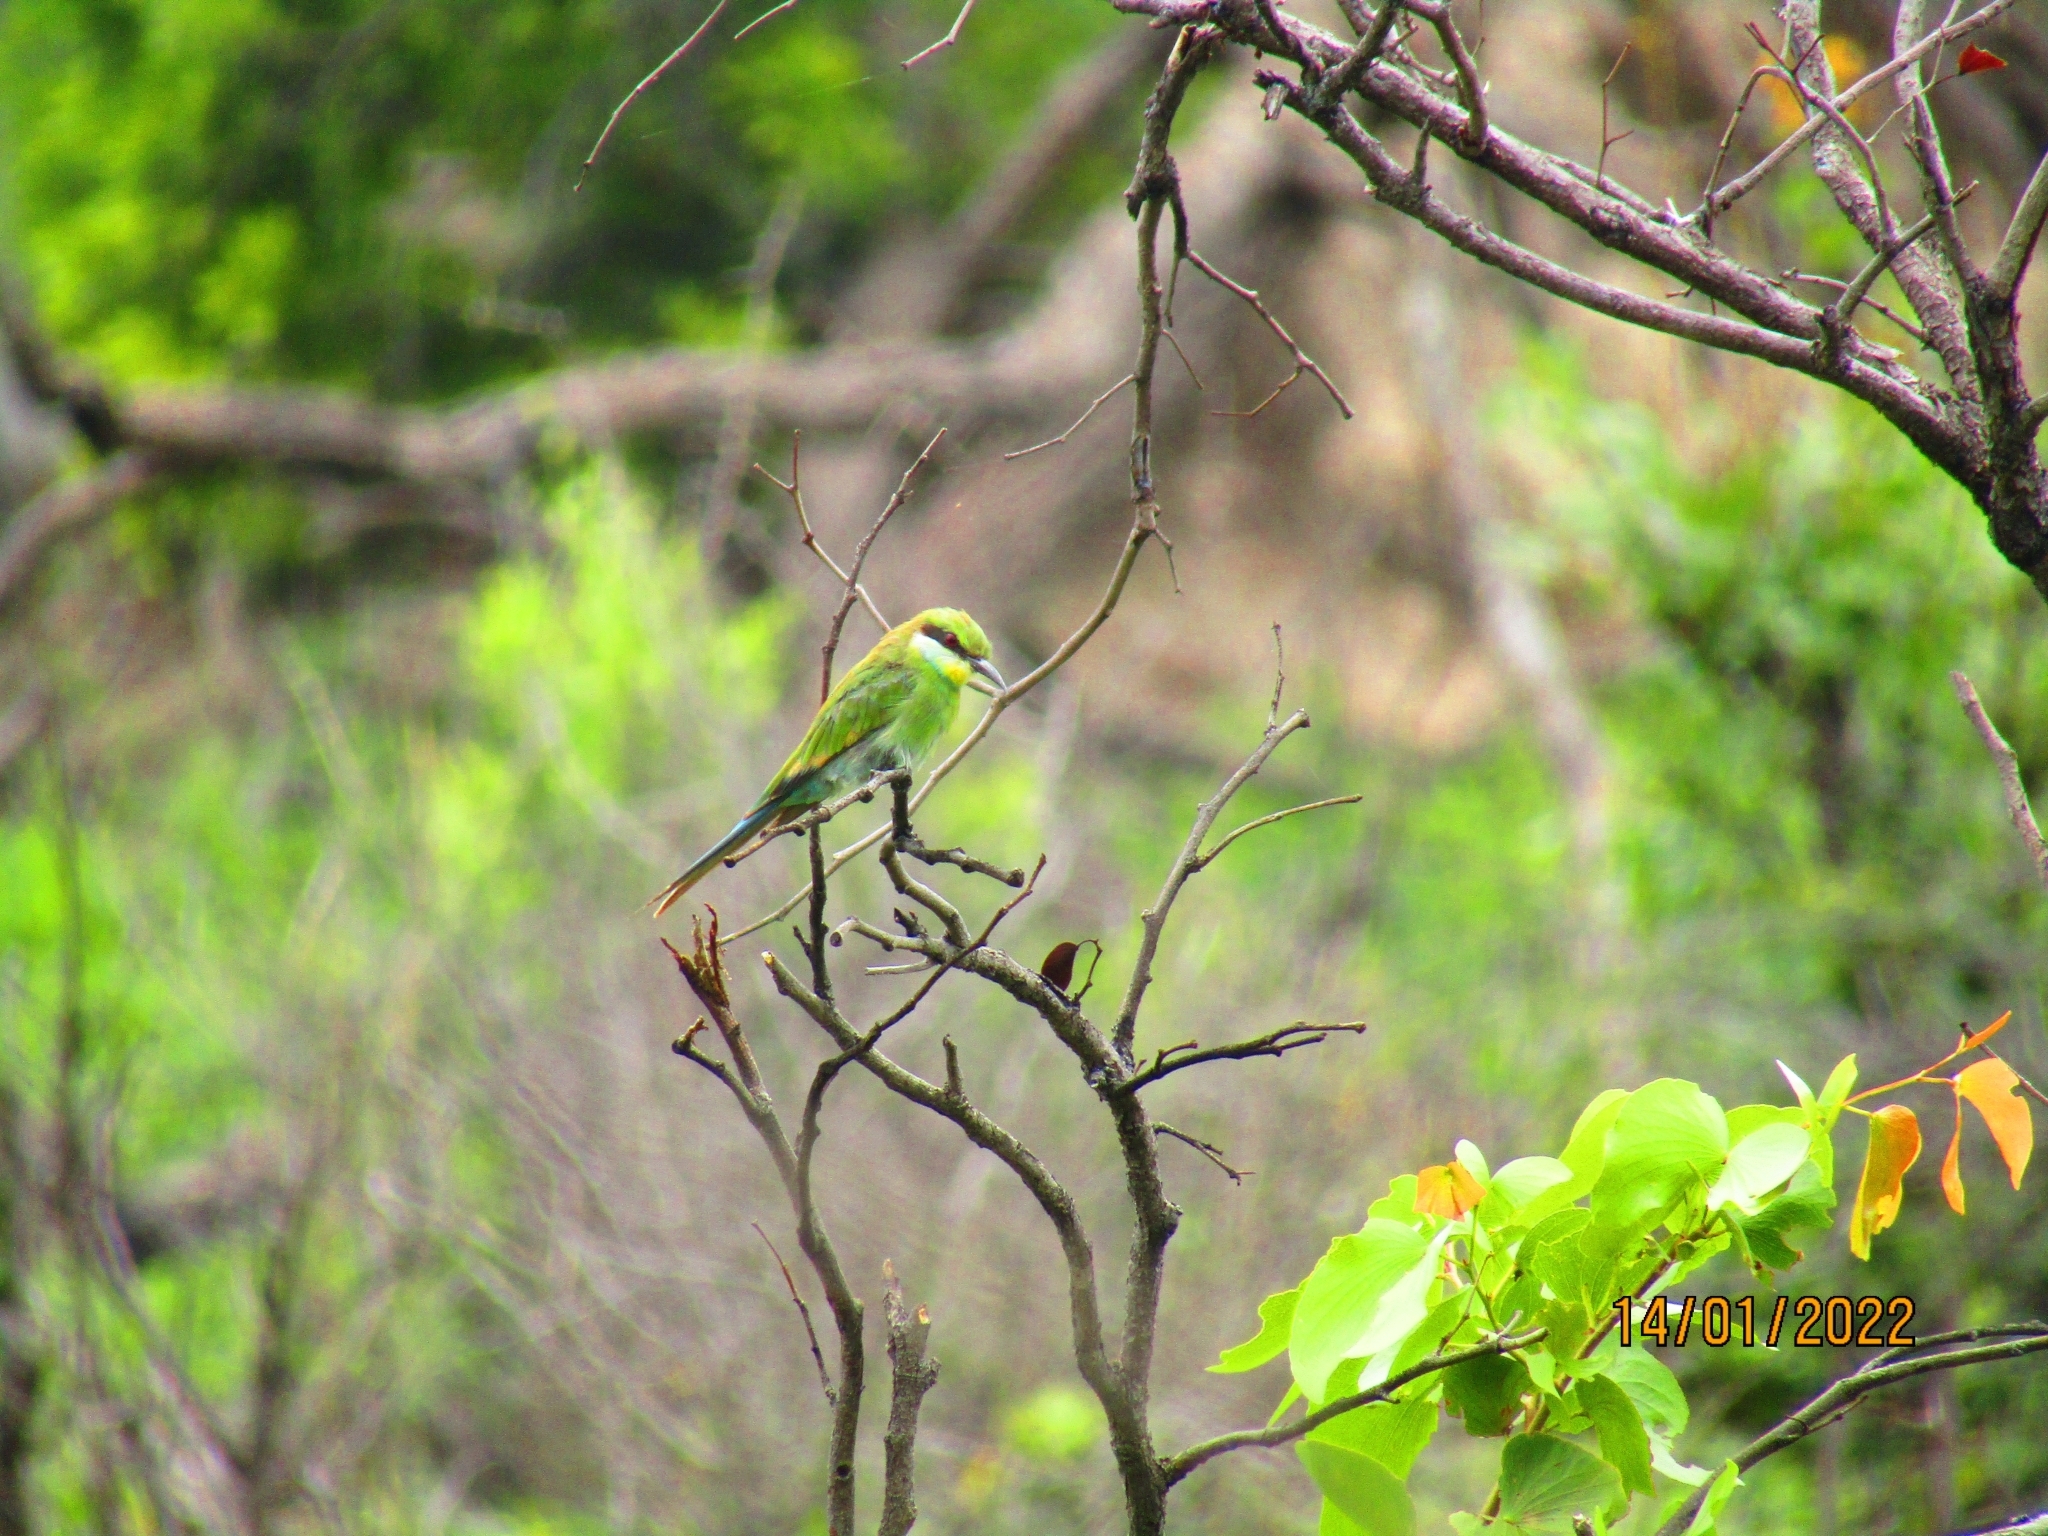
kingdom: Animalia
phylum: Chordata
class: Aves
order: Coraciiformes
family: Meropidae
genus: Merops
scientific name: Merops hirundineus
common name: Swallow-tailed bee-eater
